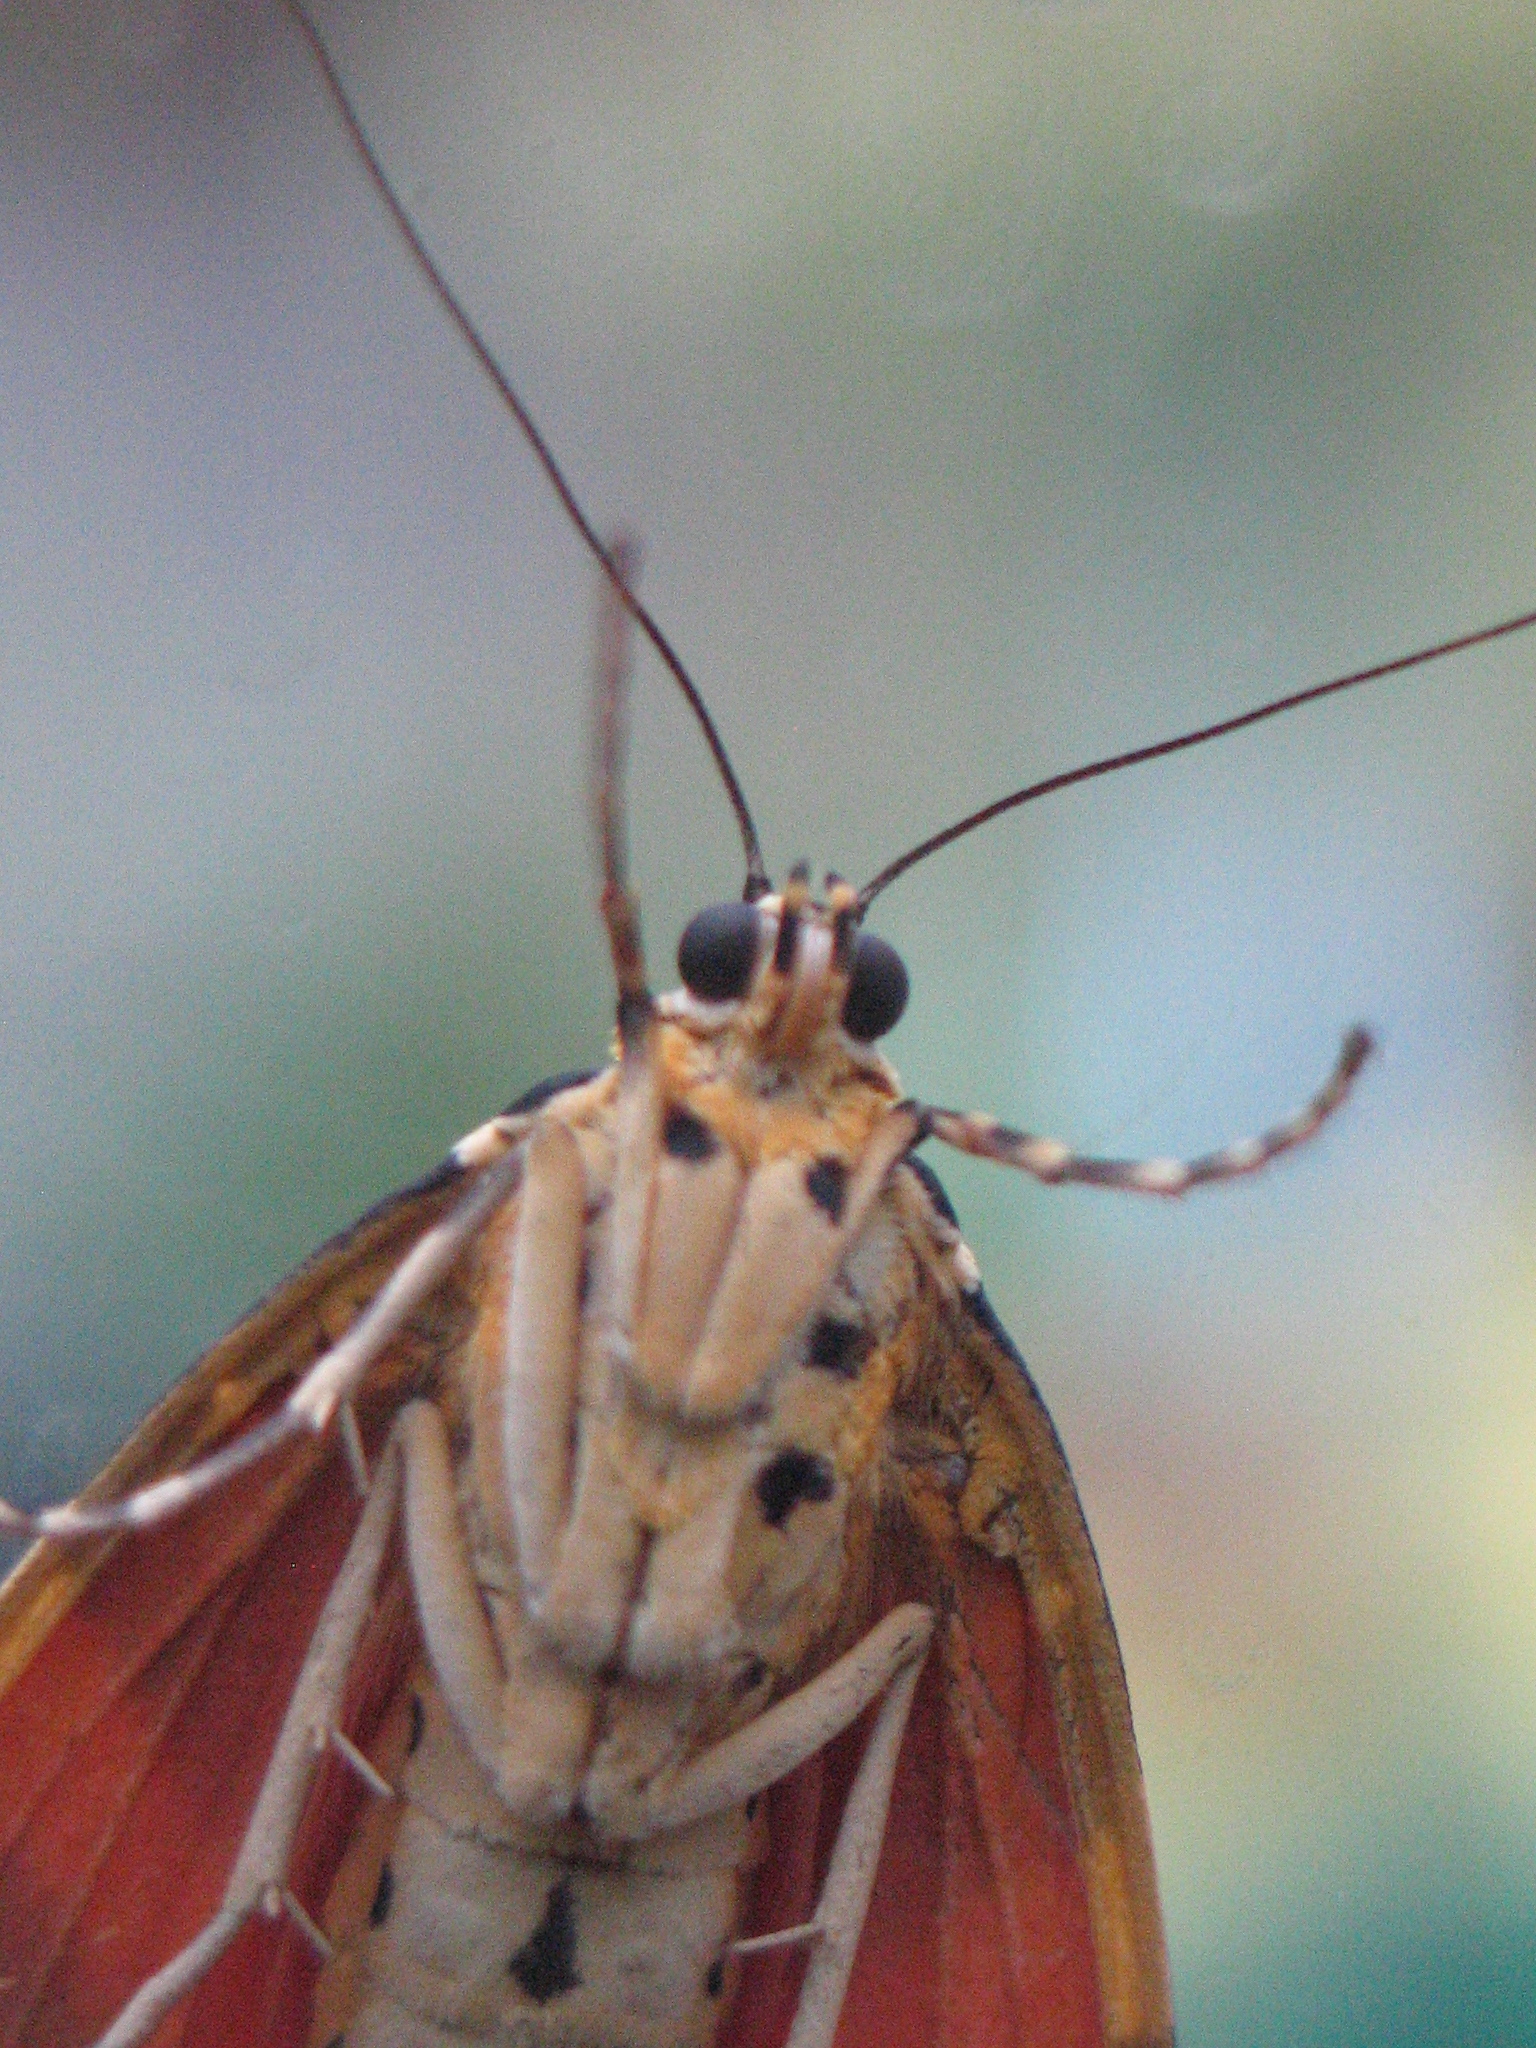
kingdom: Animalia
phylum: Arthropoda
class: Insecta
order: Lepidoptera
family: Erebidae
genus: Euplagia
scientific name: Euplagia quadripunctaria
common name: Jersey tiger
